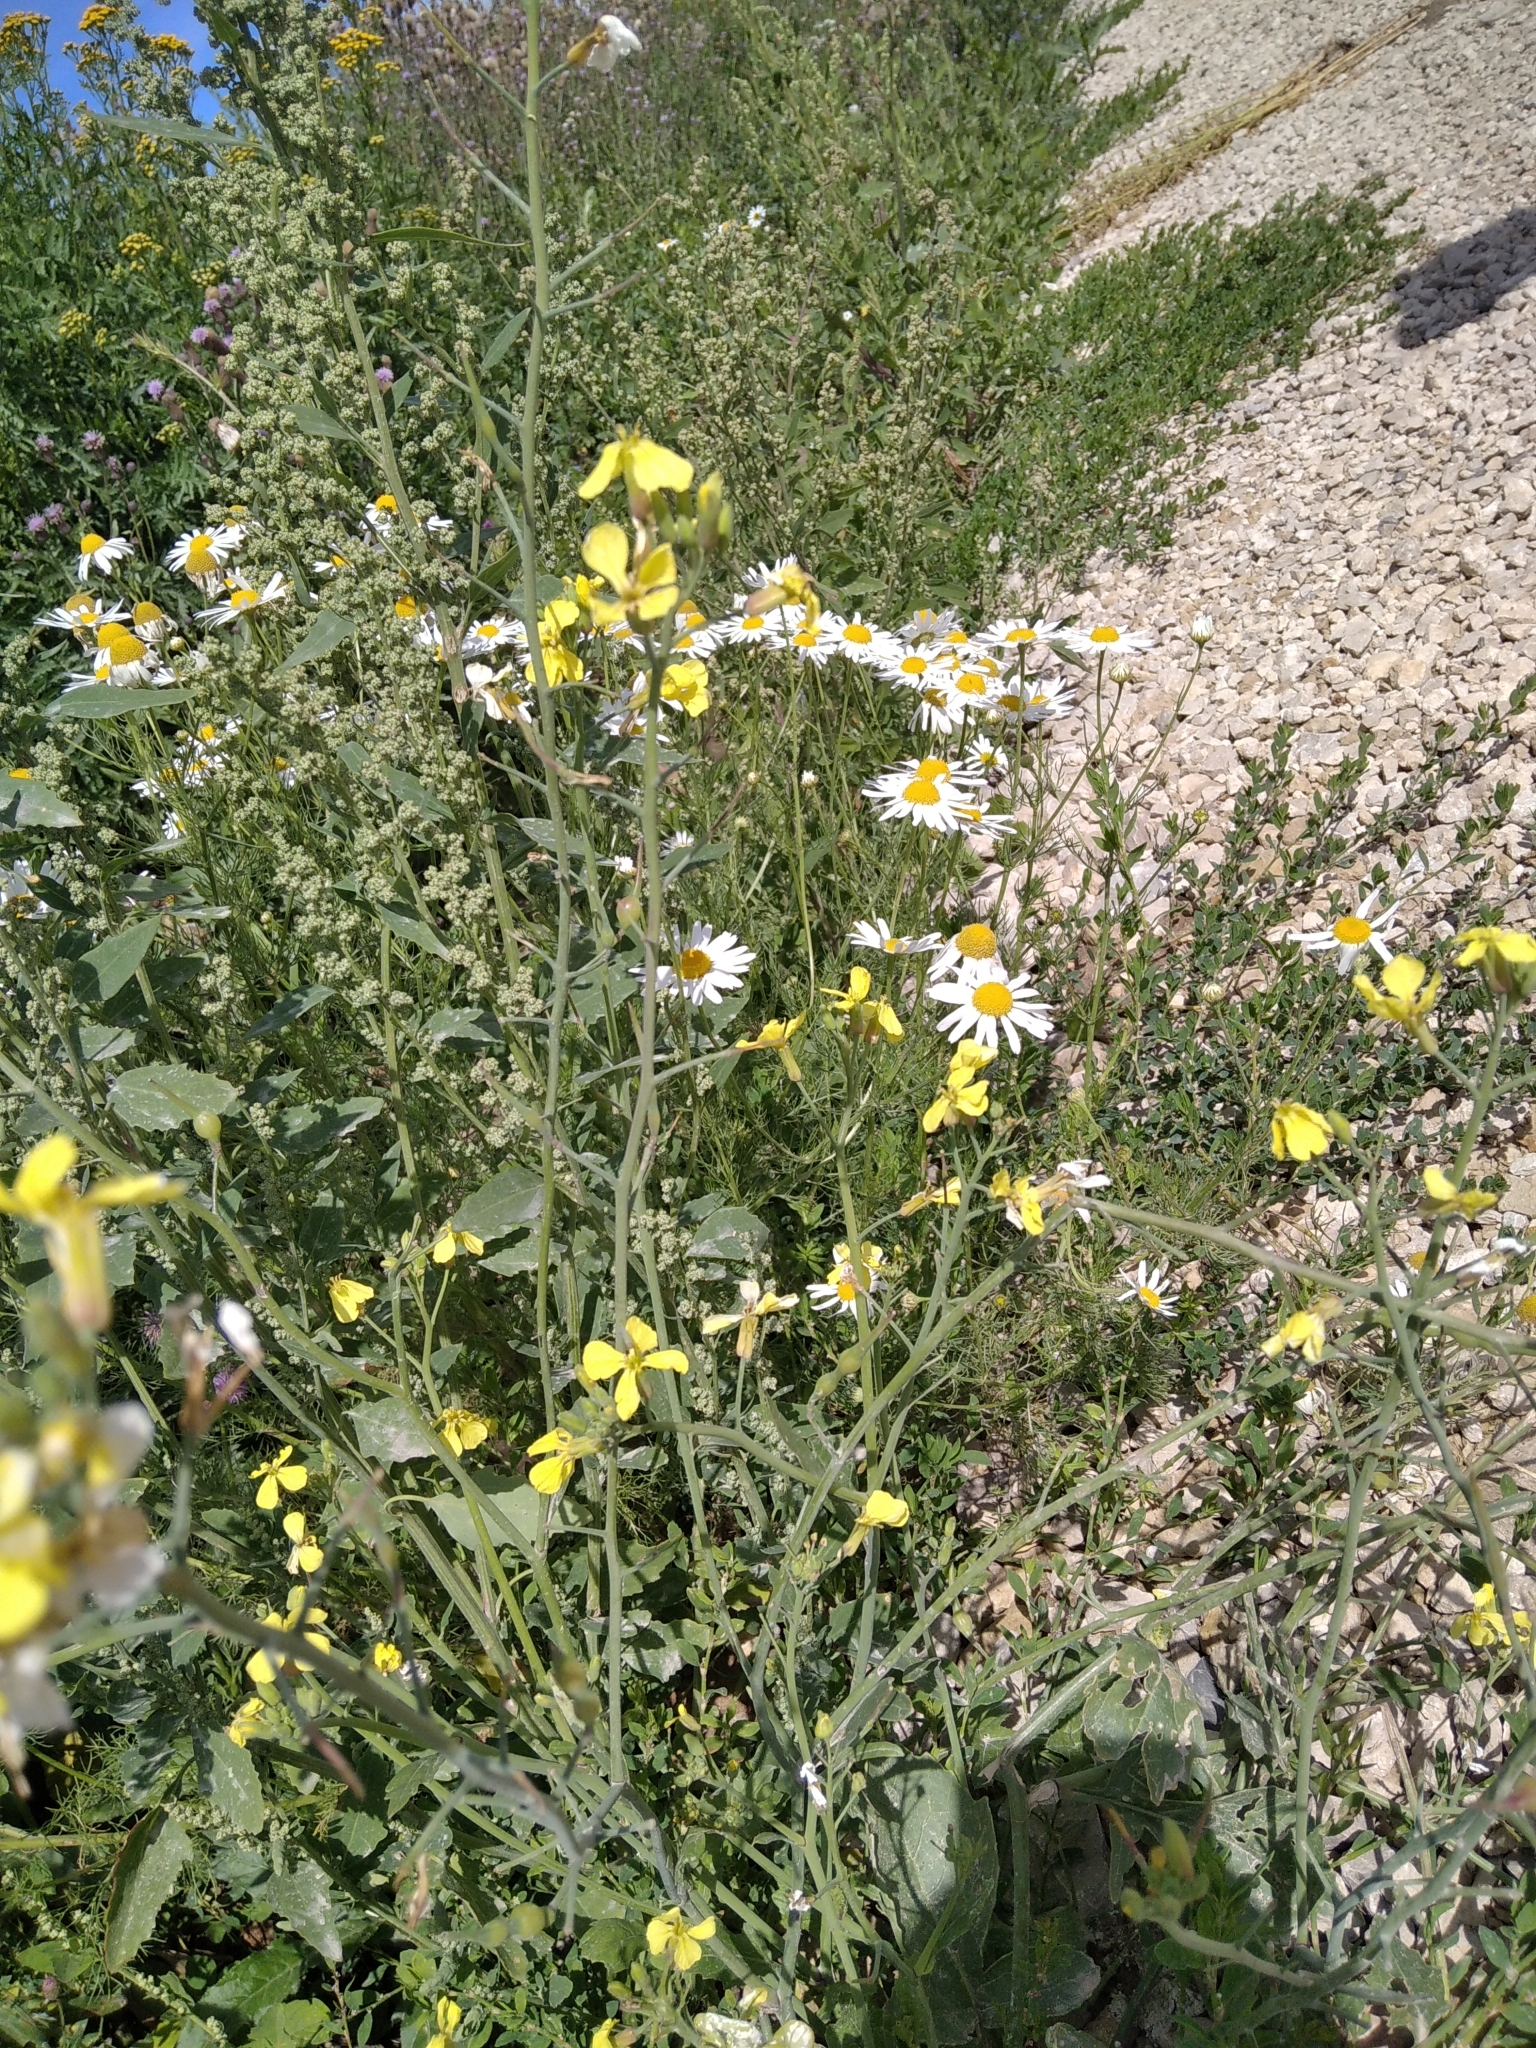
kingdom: Plantae
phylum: Tracheophyta
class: Magnoliopsida
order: Brassicales
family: Brassicaceae
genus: Raphanus
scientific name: Raphanus raphanistrum
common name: Wild radish
